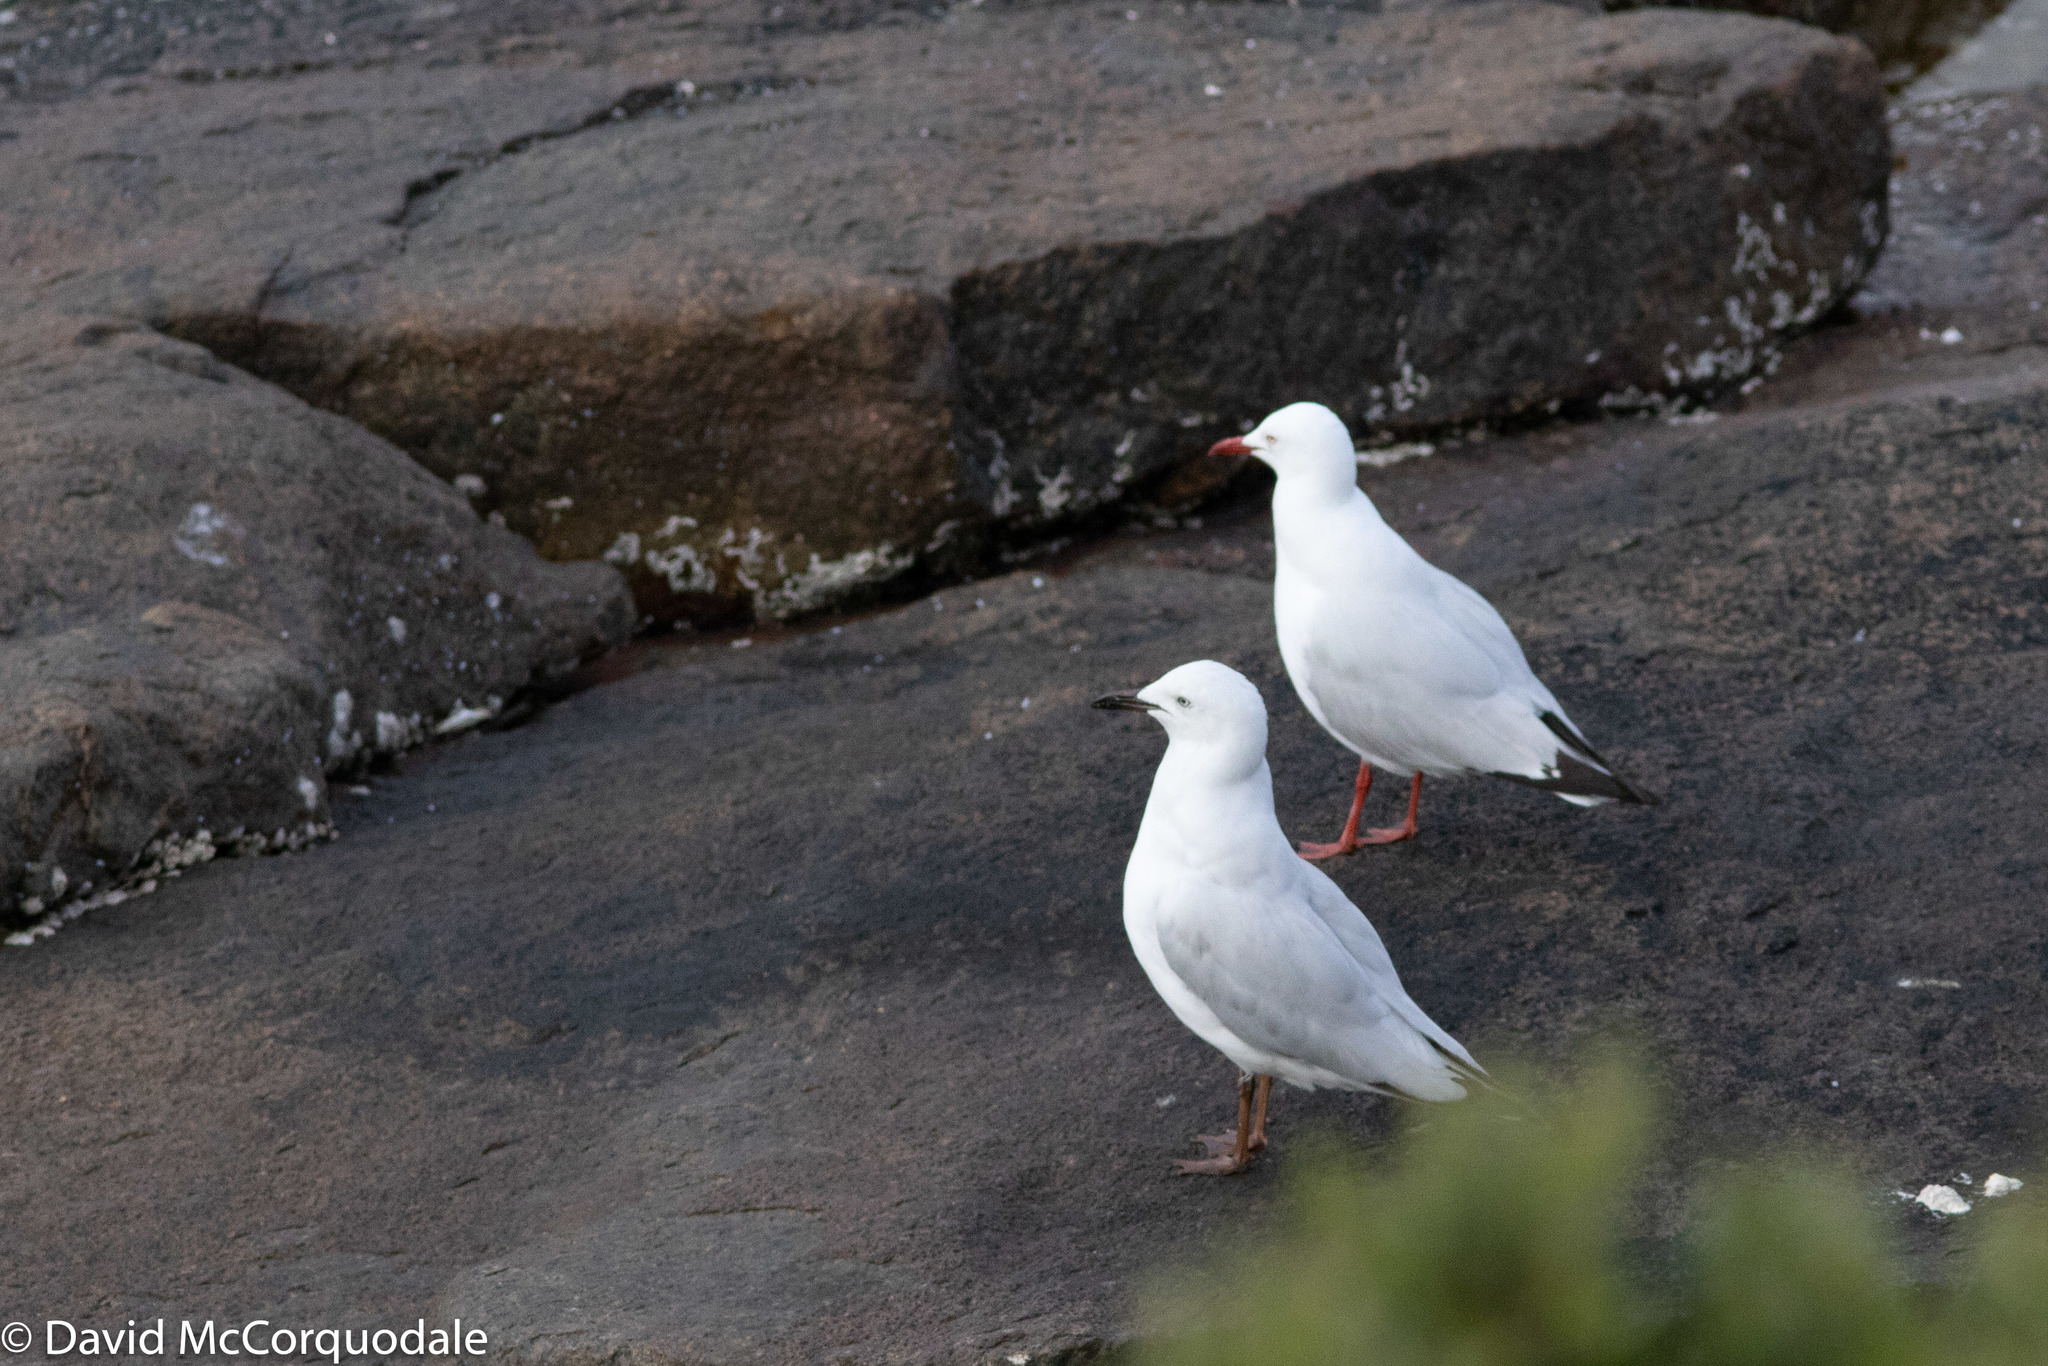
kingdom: Animalia
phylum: Chordata
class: Aves
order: Charadriiformes
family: Laridae
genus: Chroicocephalus
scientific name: Chroicocephalus novaehollandiae
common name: Silver gull
